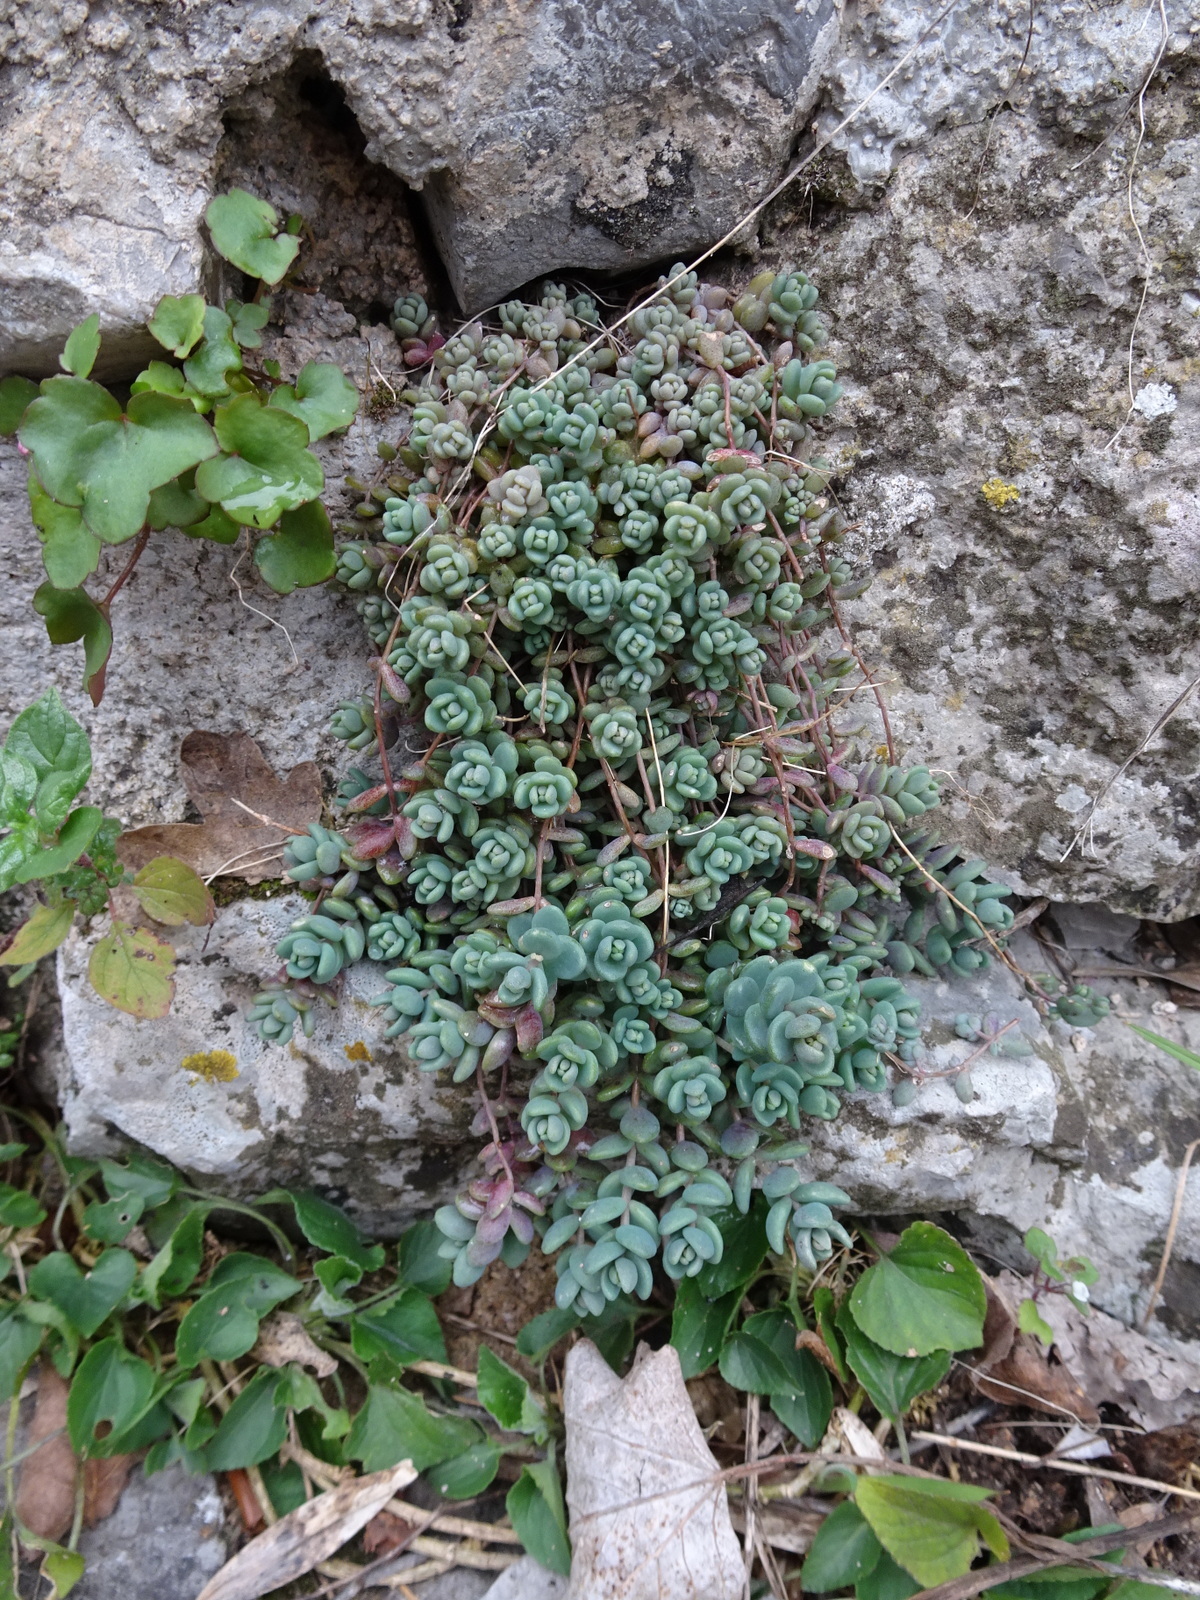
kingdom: Plantae
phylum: Tracheophyta
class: Magnoliopsida
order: Saxifragales
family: Crassulaceae
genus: Sedum
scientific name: Sedum dasyphyllum
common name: Thick-leaf stonecrop
